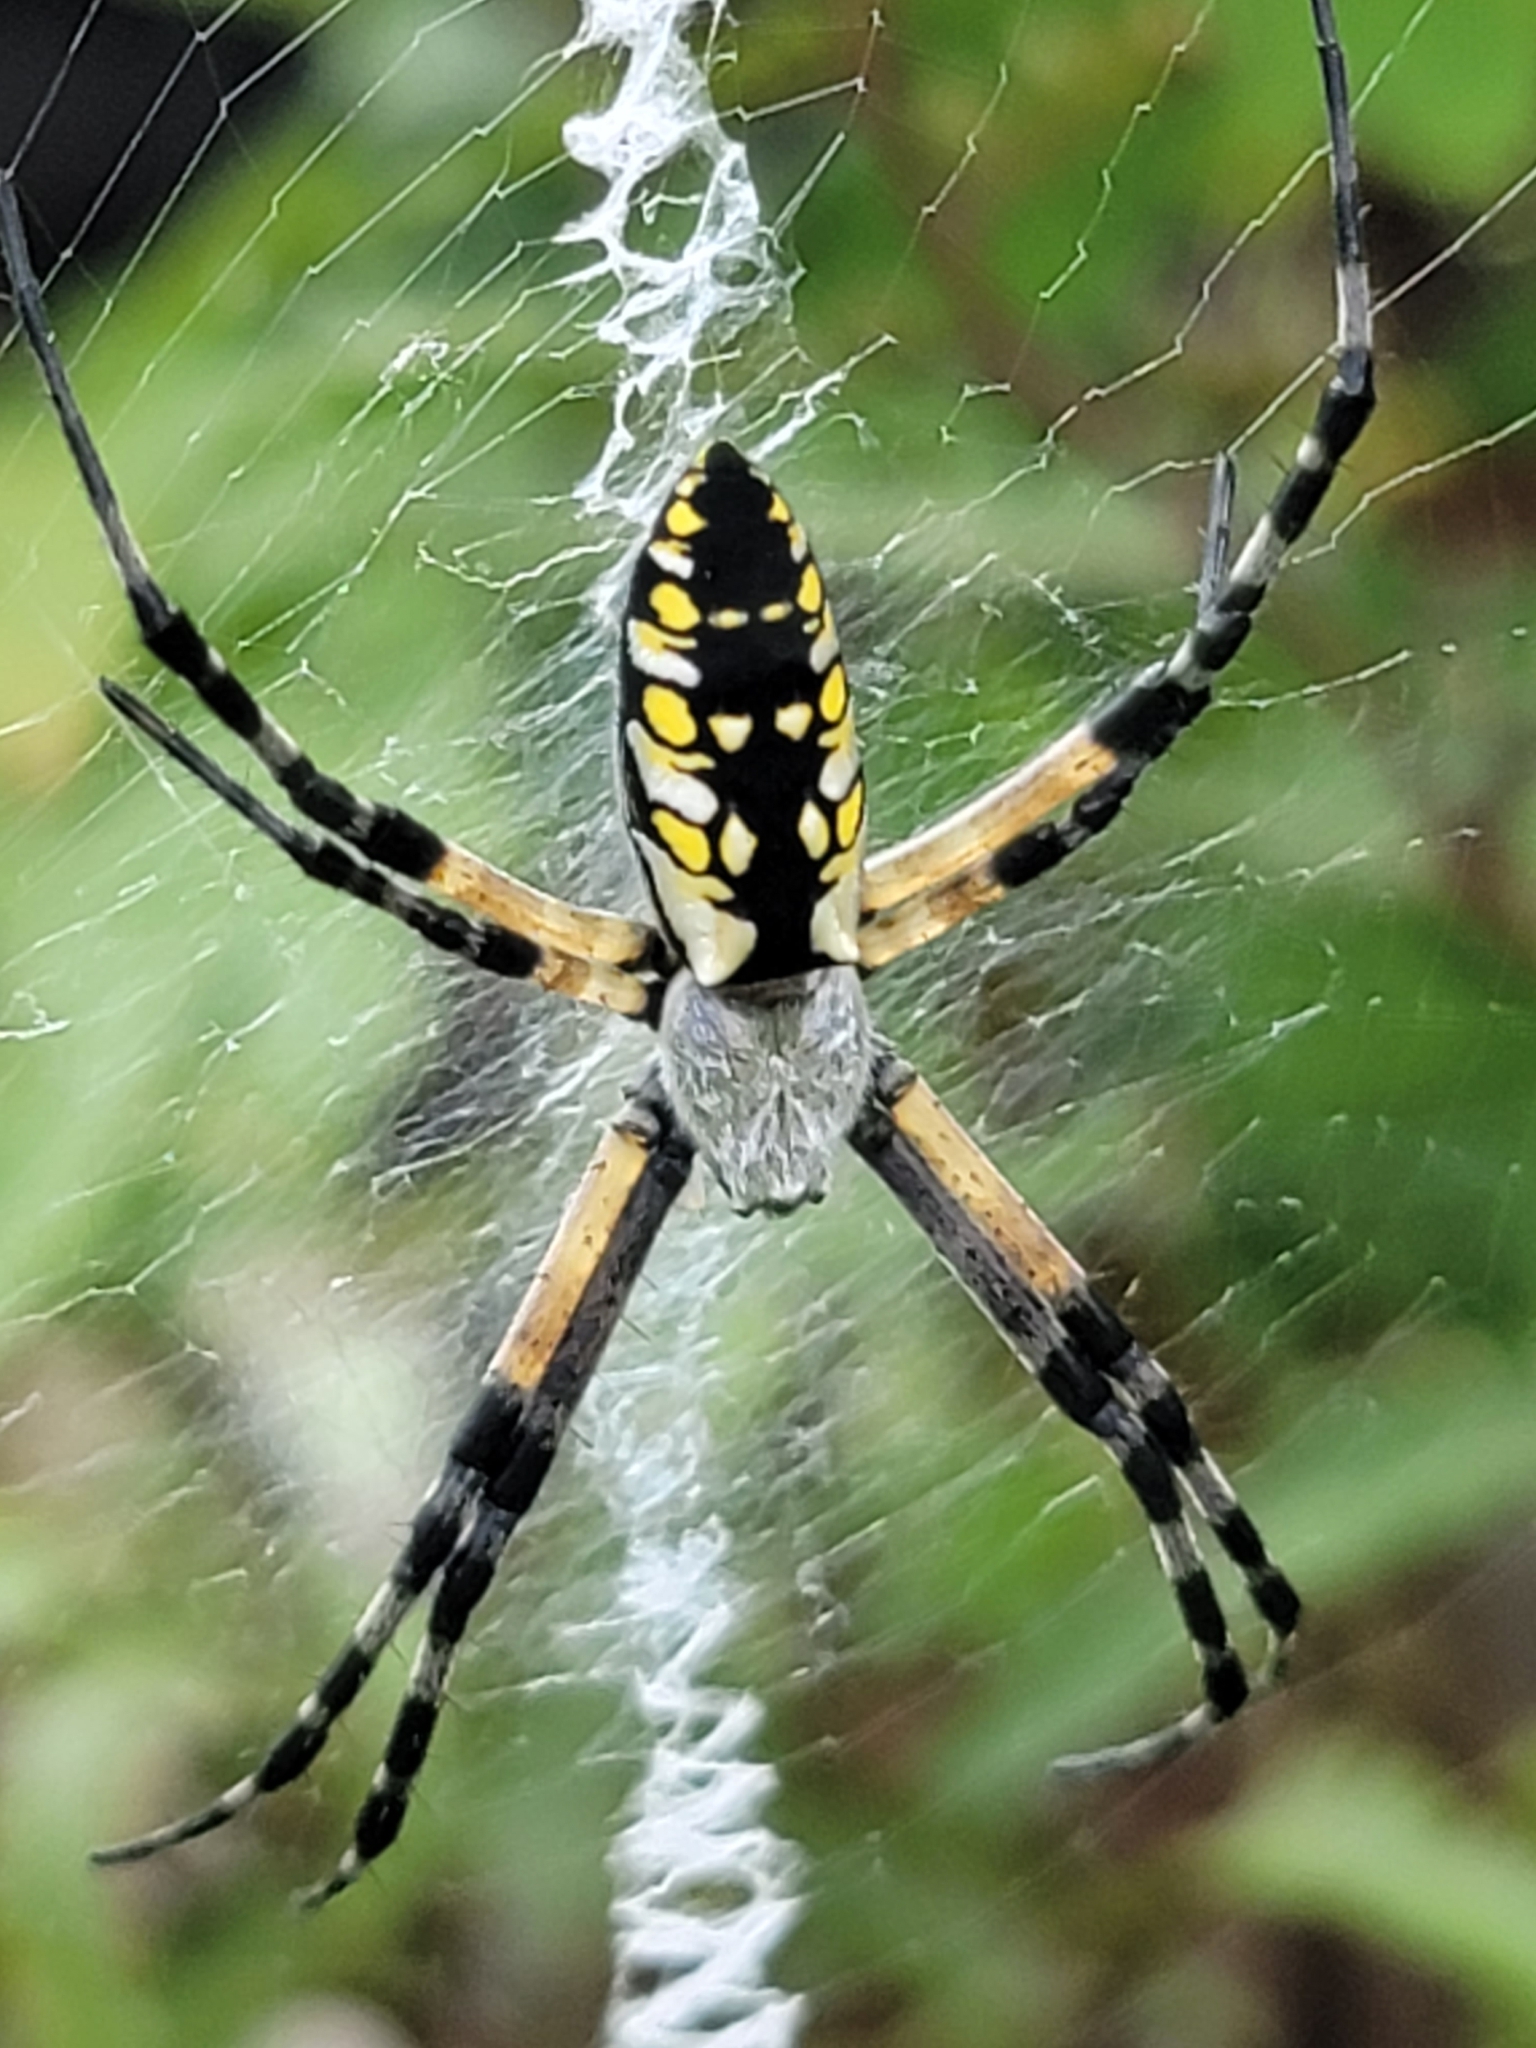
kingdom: Animalia
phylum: Arthropoda
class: Arachnida
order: Araneae
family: Araneidae
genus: Argiope
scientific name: Argiope aurantia
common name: Orb weavers
